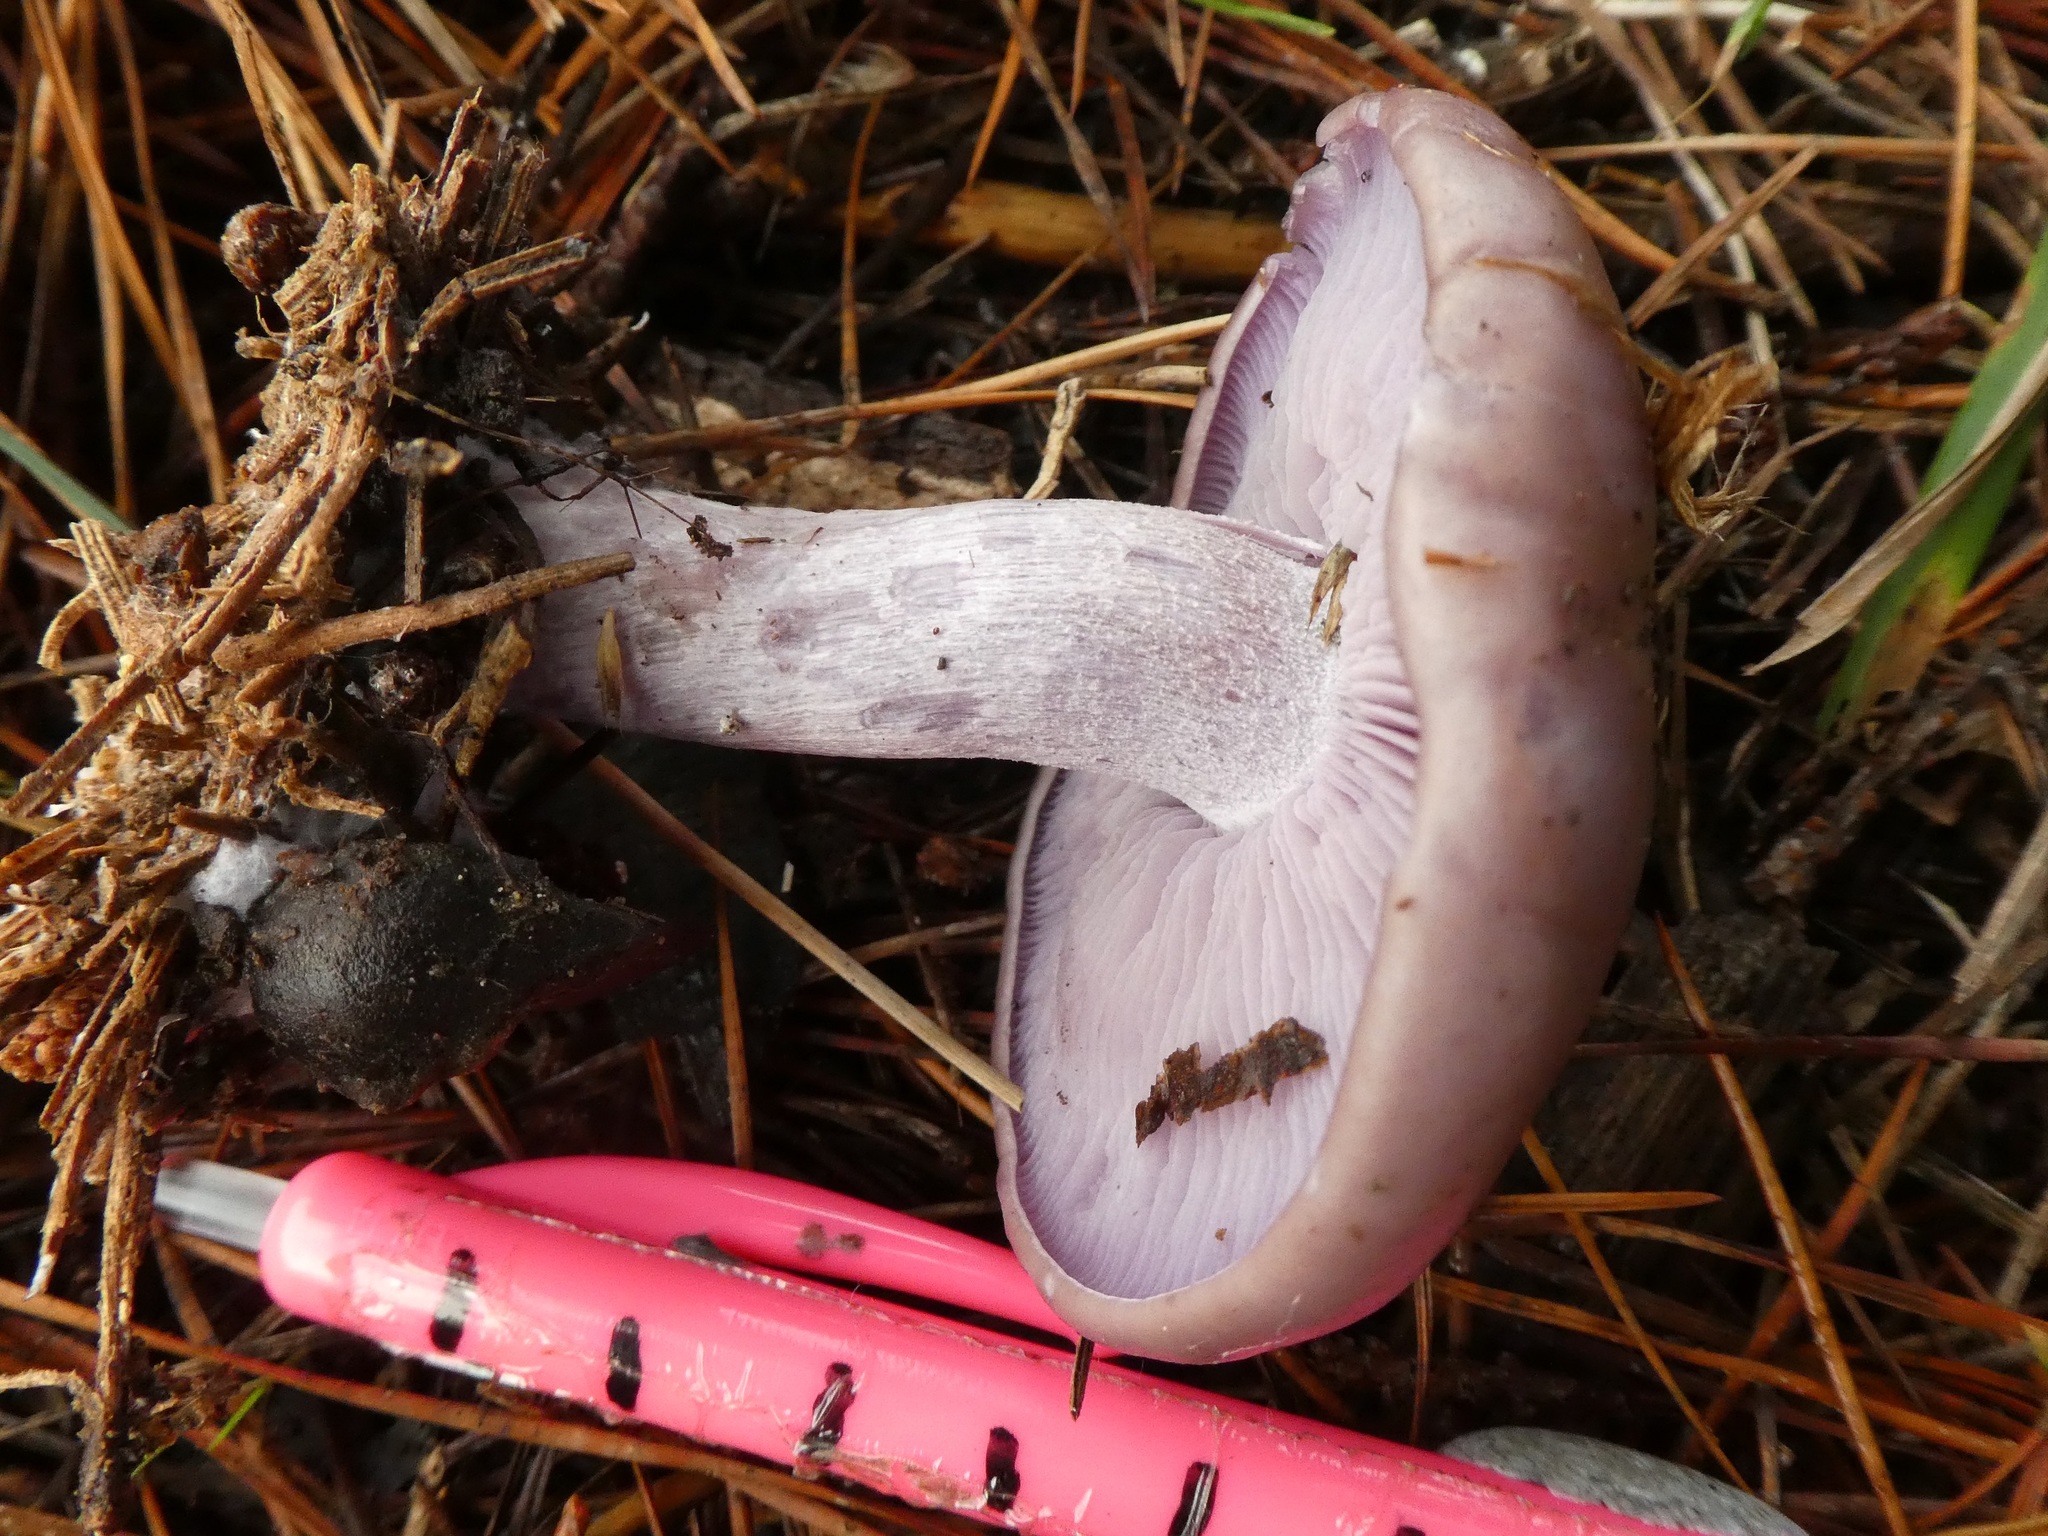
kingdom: Fungi
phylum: Basidiomycota
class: Agaricomycetes
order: Agaricales
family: Tricholomataceae
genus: Collybia
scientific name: Collybia
